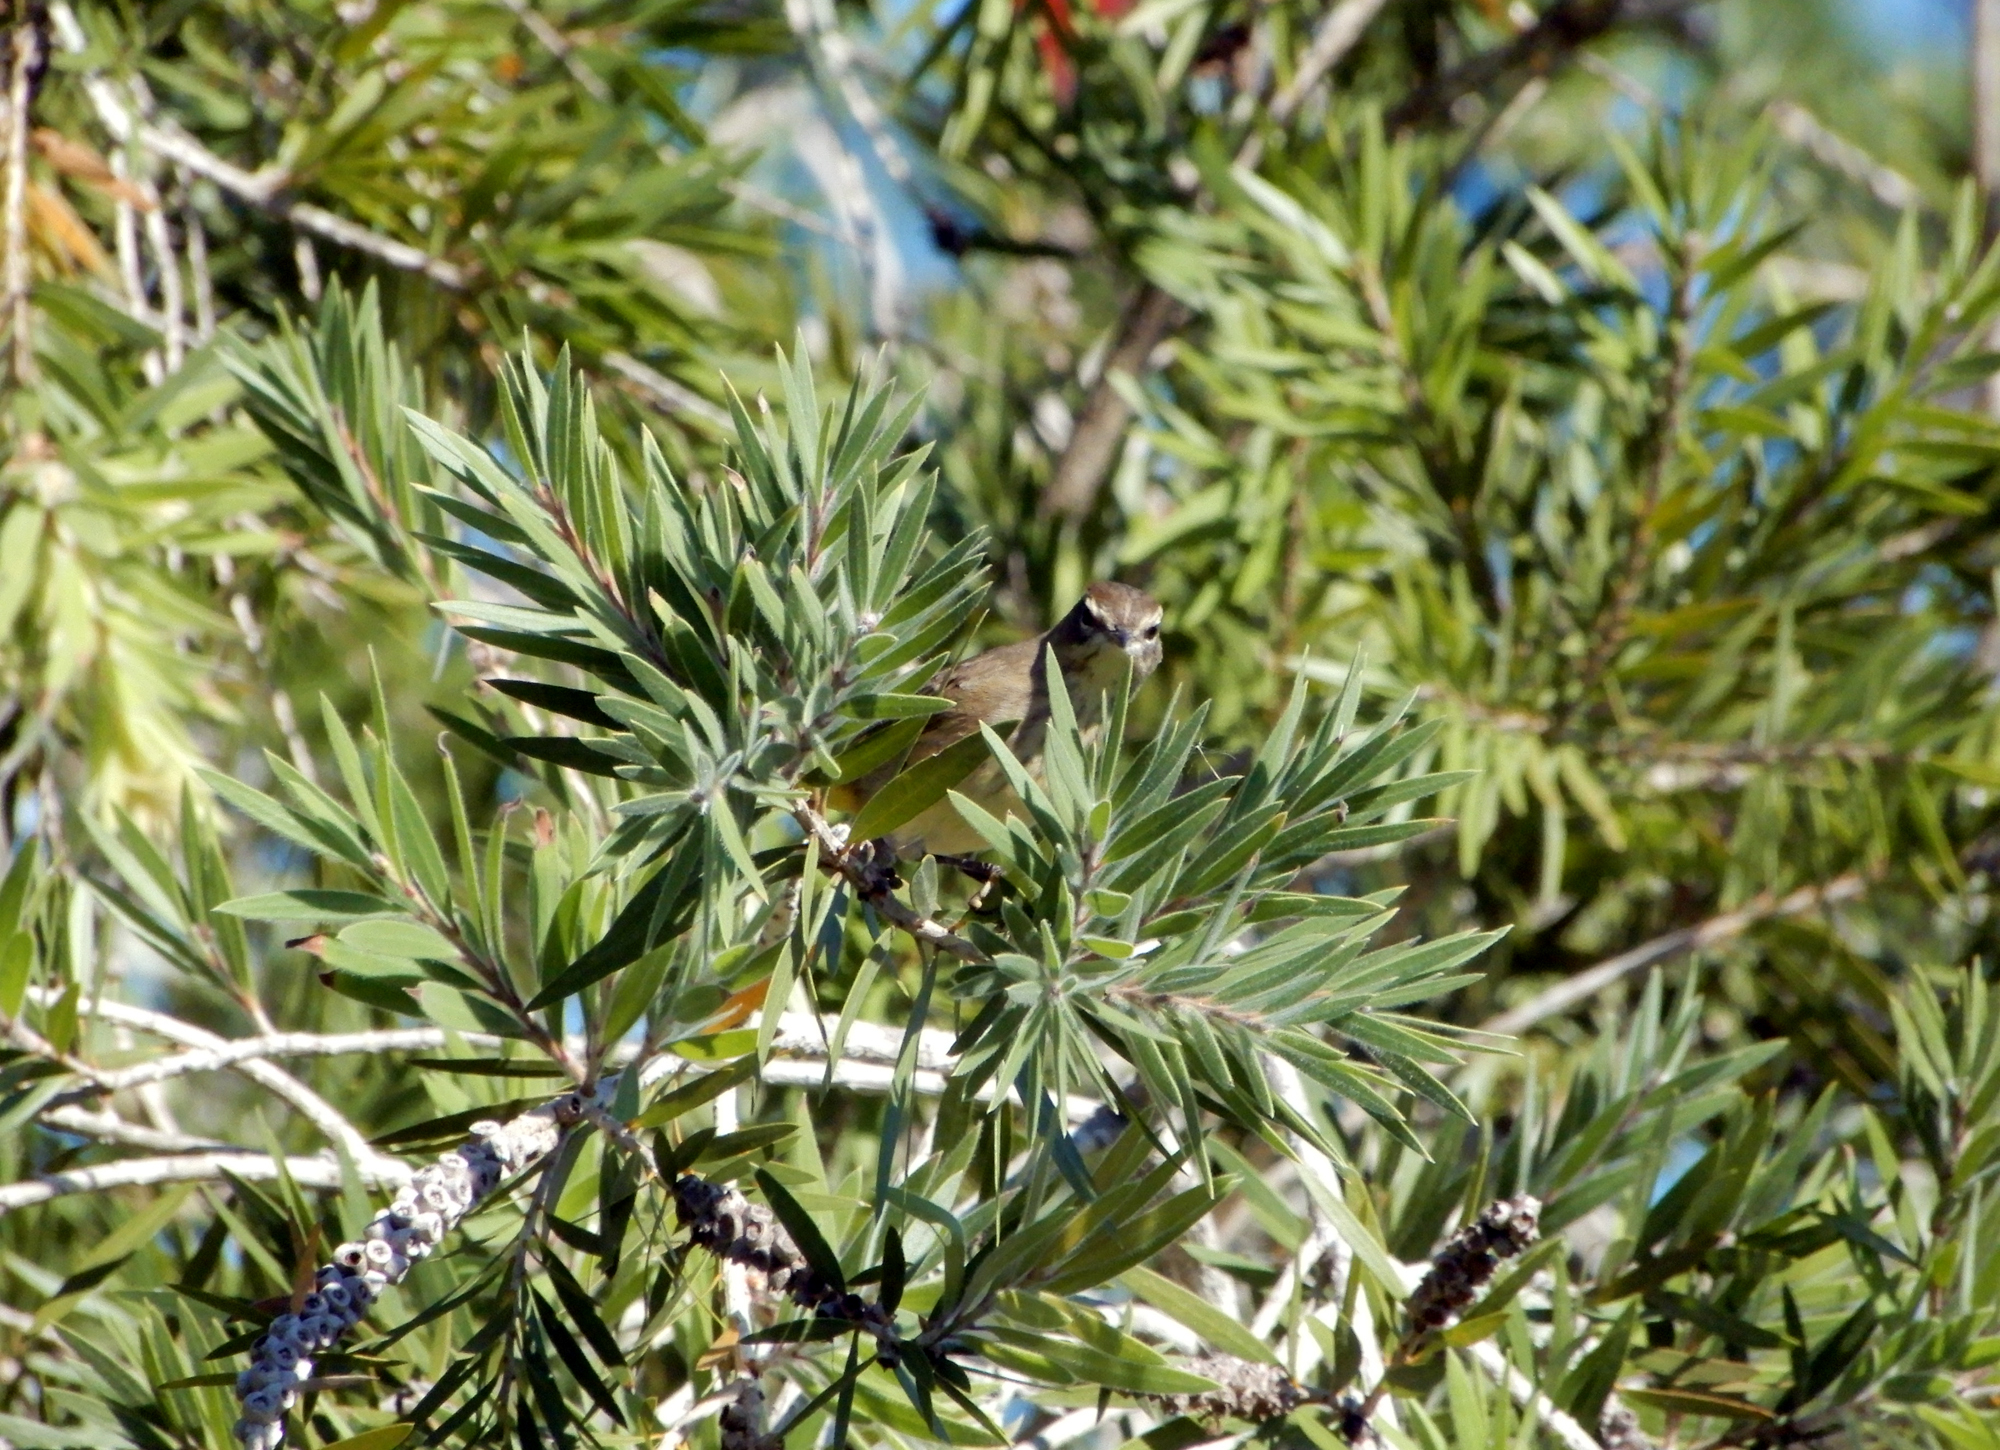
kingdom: Animalia
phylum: Chordata
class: Aves
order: Passeriformes
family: Parulidae
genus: Setophaga
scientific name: Setophaga palmarum
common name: Palm warbler
